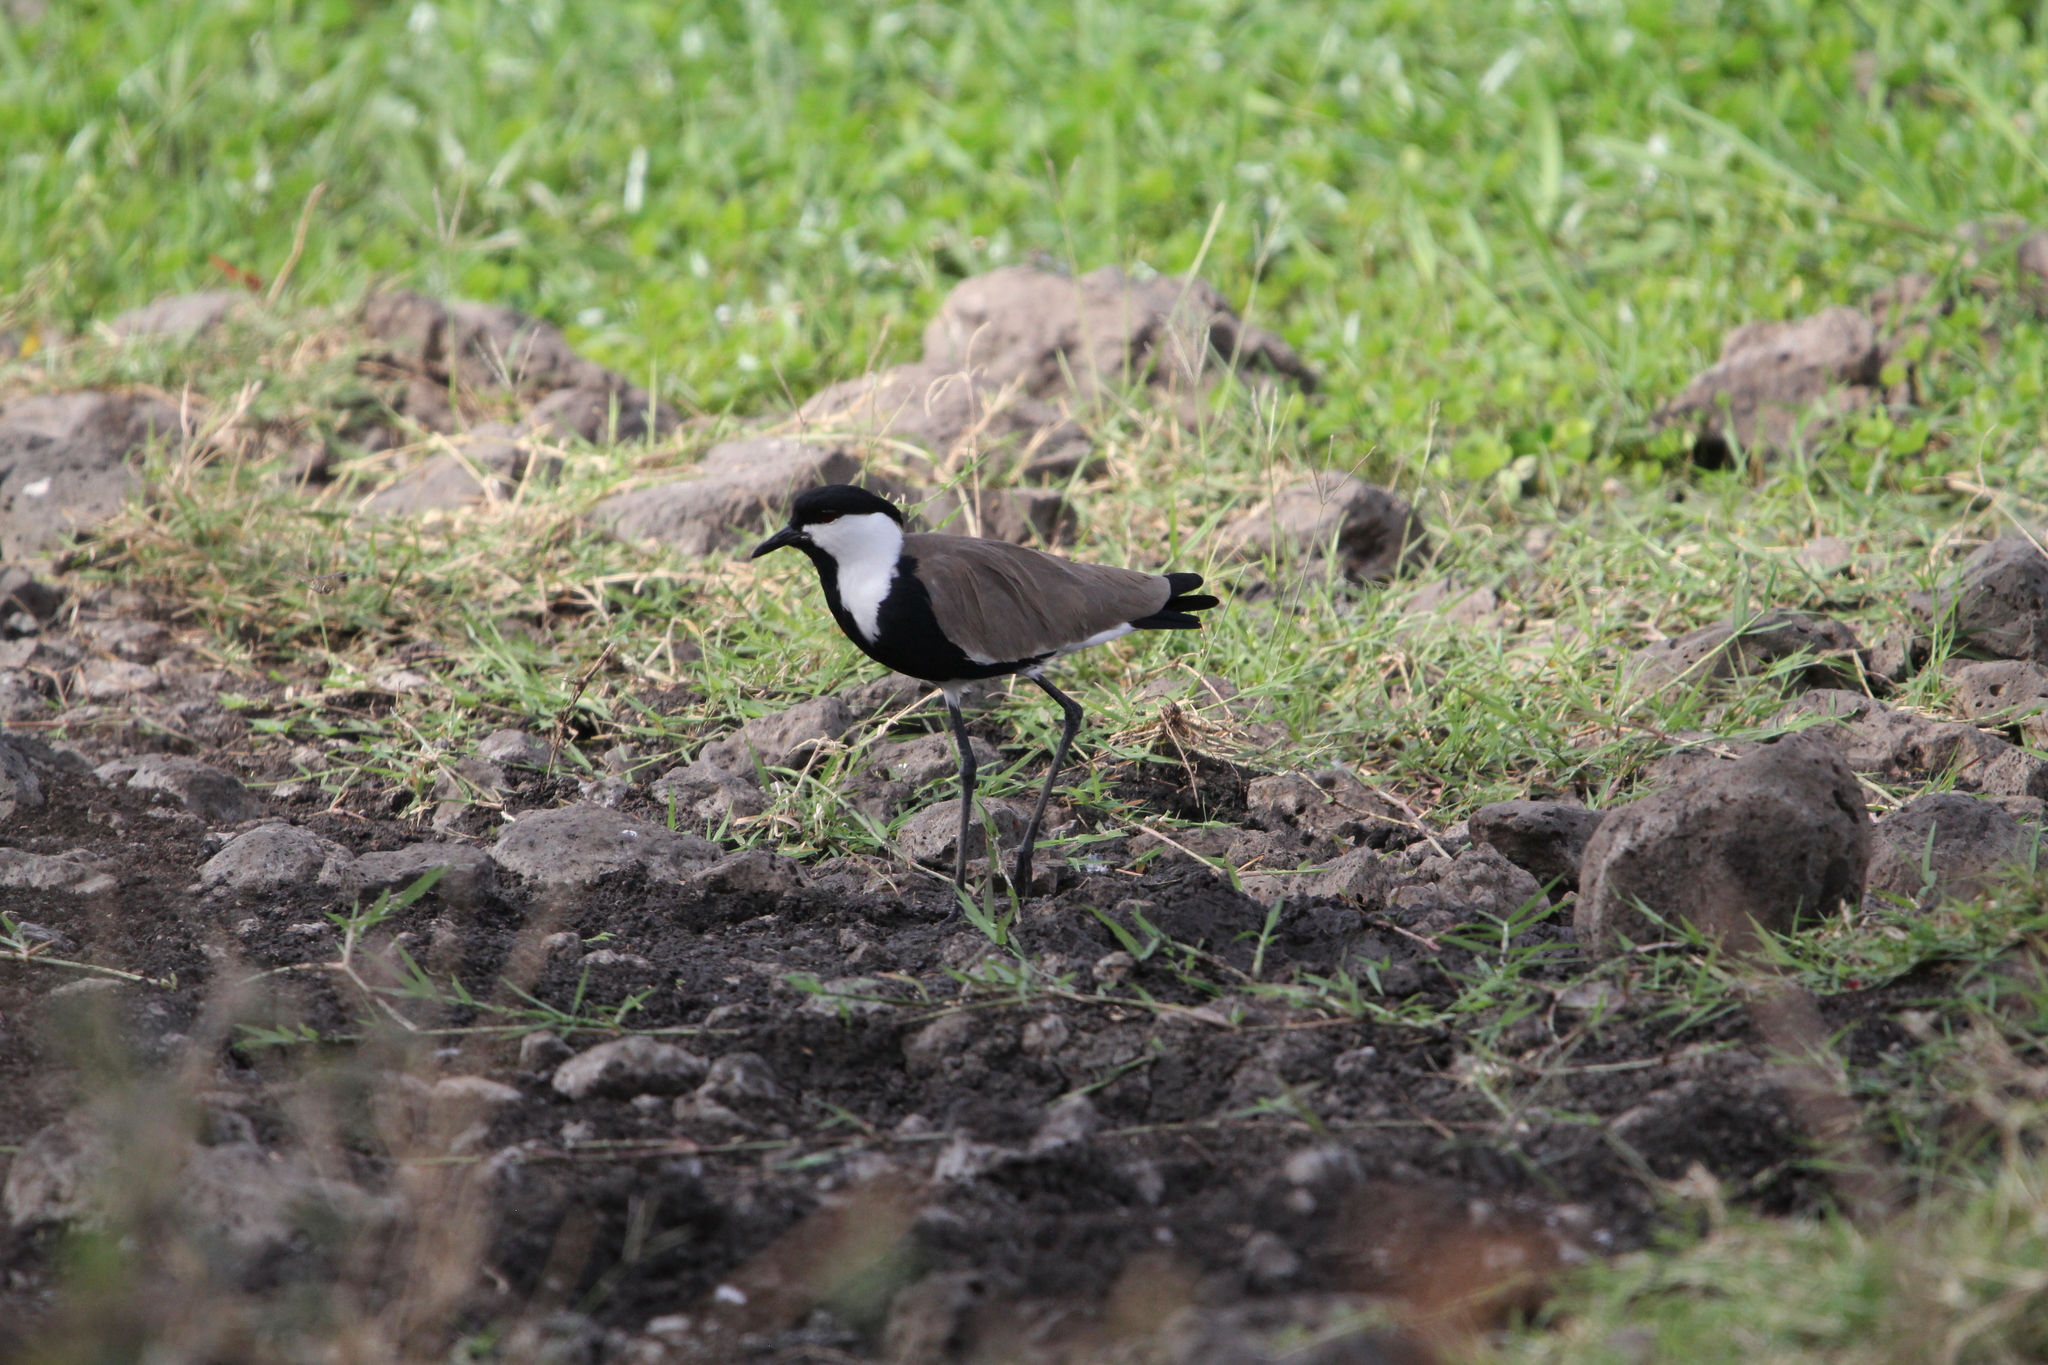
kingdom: Animalia
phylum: Chordata
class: Aves
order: Charadriiformes
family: Charadriidae
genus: Vanellus
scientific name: Vanellus spinosus
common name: Spur-winged lapwing
